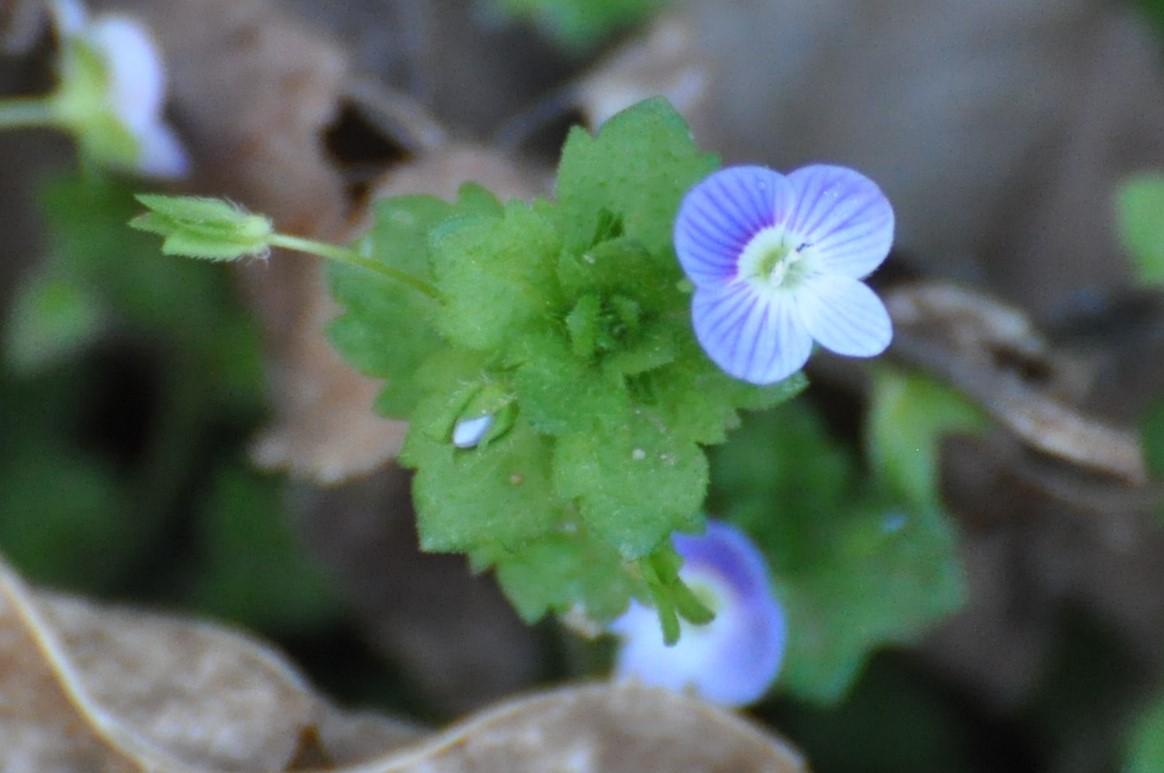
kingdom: Plantae
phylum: Tracheophyta
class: Magnoliopsida
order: Lamiales
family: Plantaginaceae
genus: Veronica
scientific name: Veronica persica
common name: Common field-speedwell
